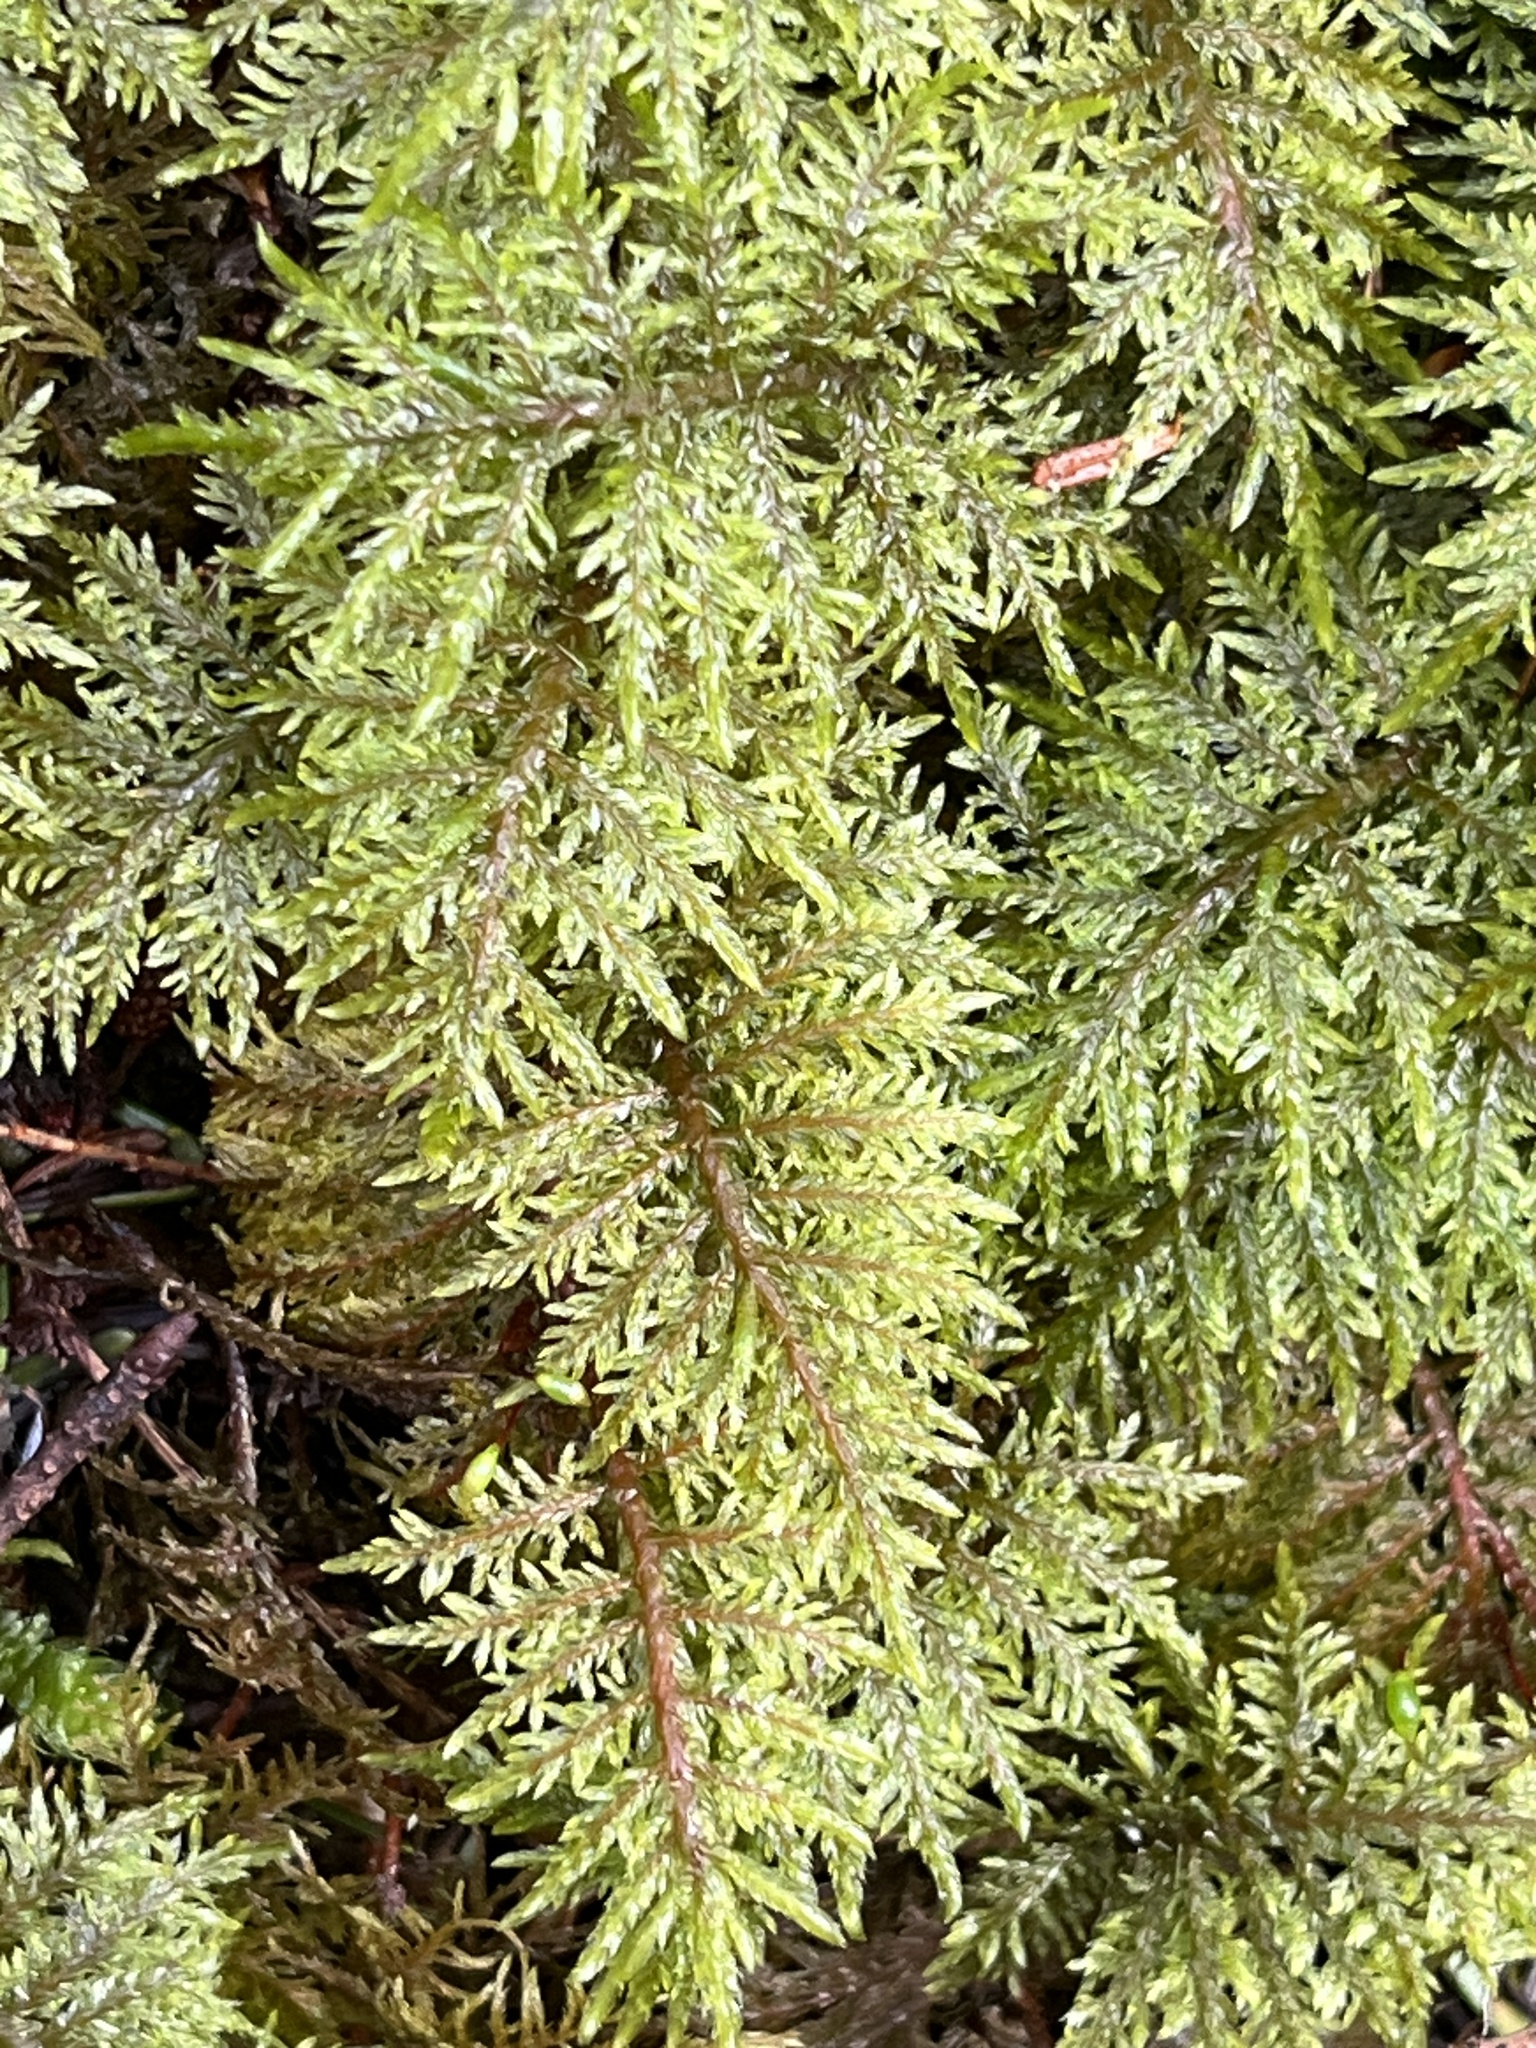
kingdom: Plantae
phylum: Bryophyta
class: Bryopsida
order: Hypnales
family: Hylocomiaceae
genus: Hylocomium
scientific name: Hylocomium splendens
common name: Stairstep moss
